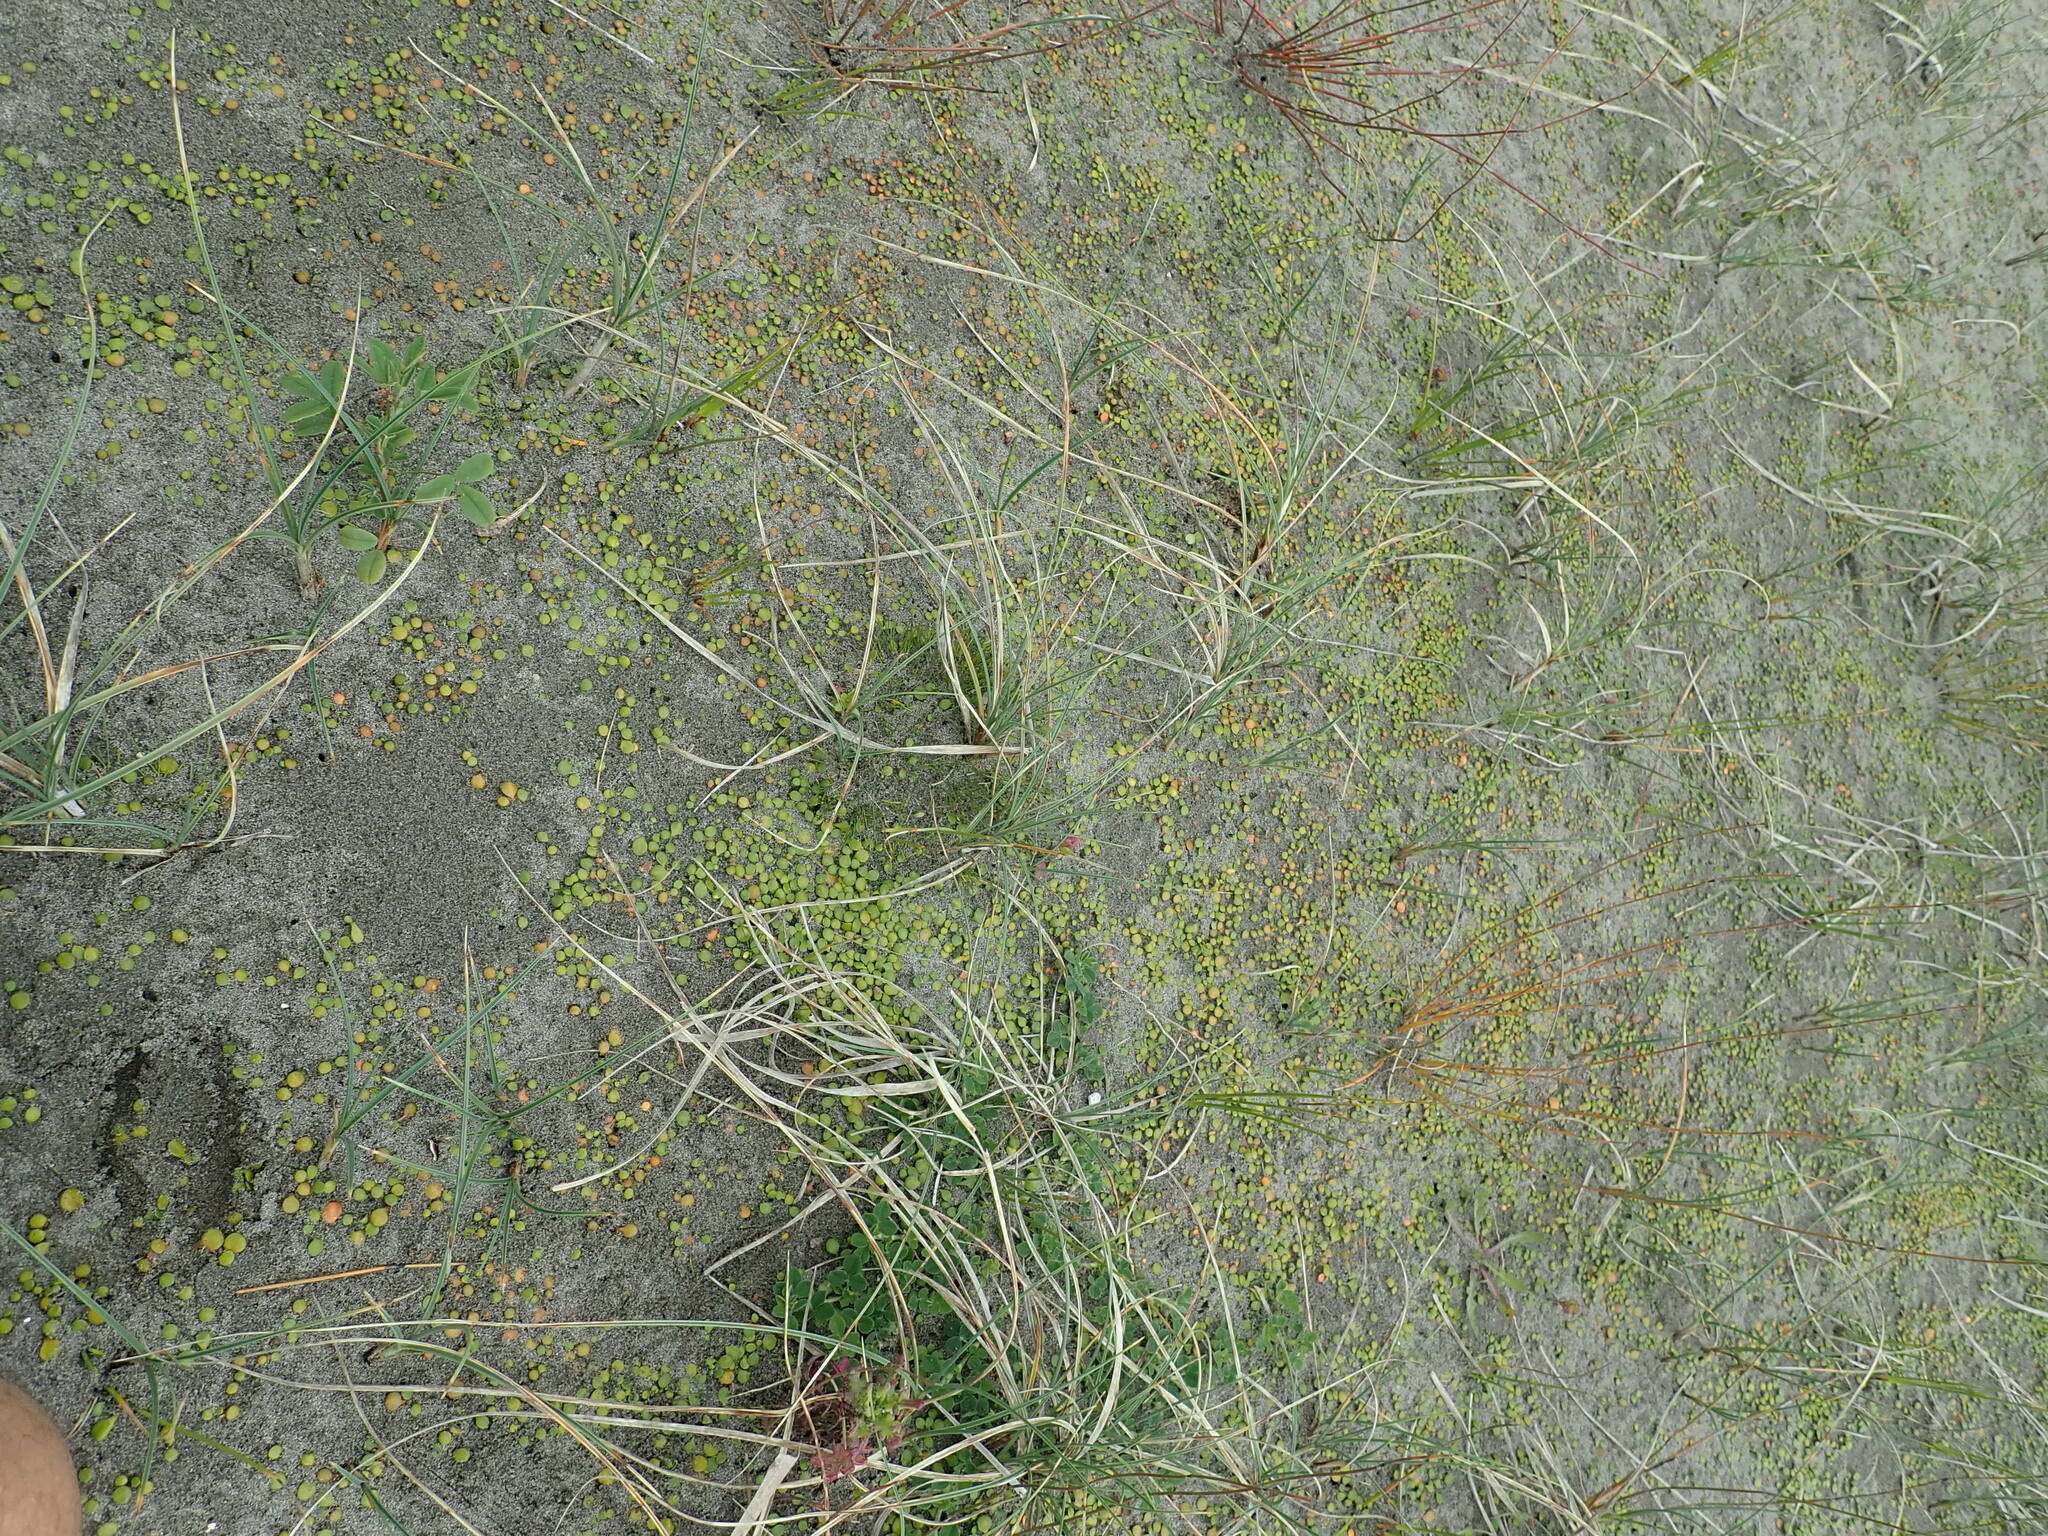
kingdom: Plantae
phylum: Tracheophyta
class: Magnoliopsida
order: Asterales
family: Goodeniaceae
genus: Goodenia
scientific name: Goodenia heenanii
